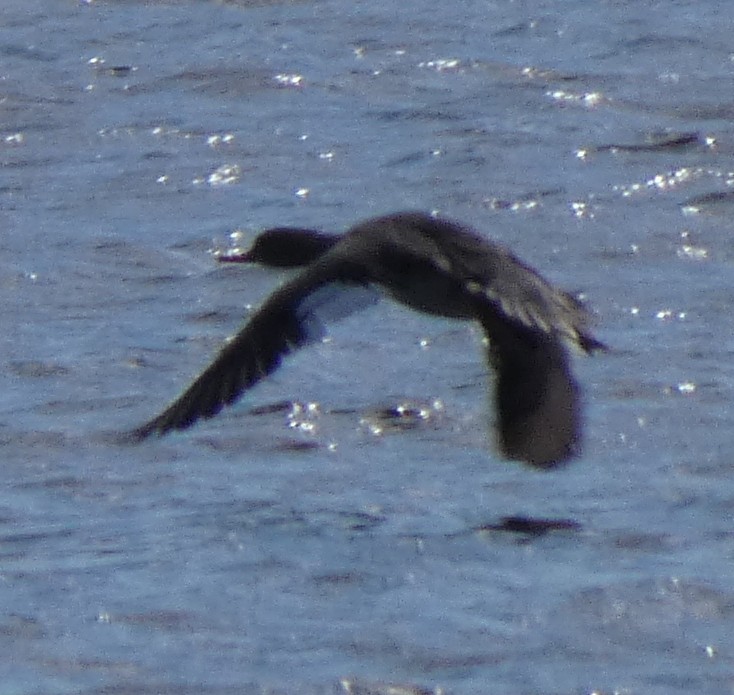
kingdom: Animalia
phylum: Chordata
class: Aves
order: Anseriformes
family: Anatidae
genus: Mergus
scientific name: Mergus serrator
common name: Red-breasted merganser
